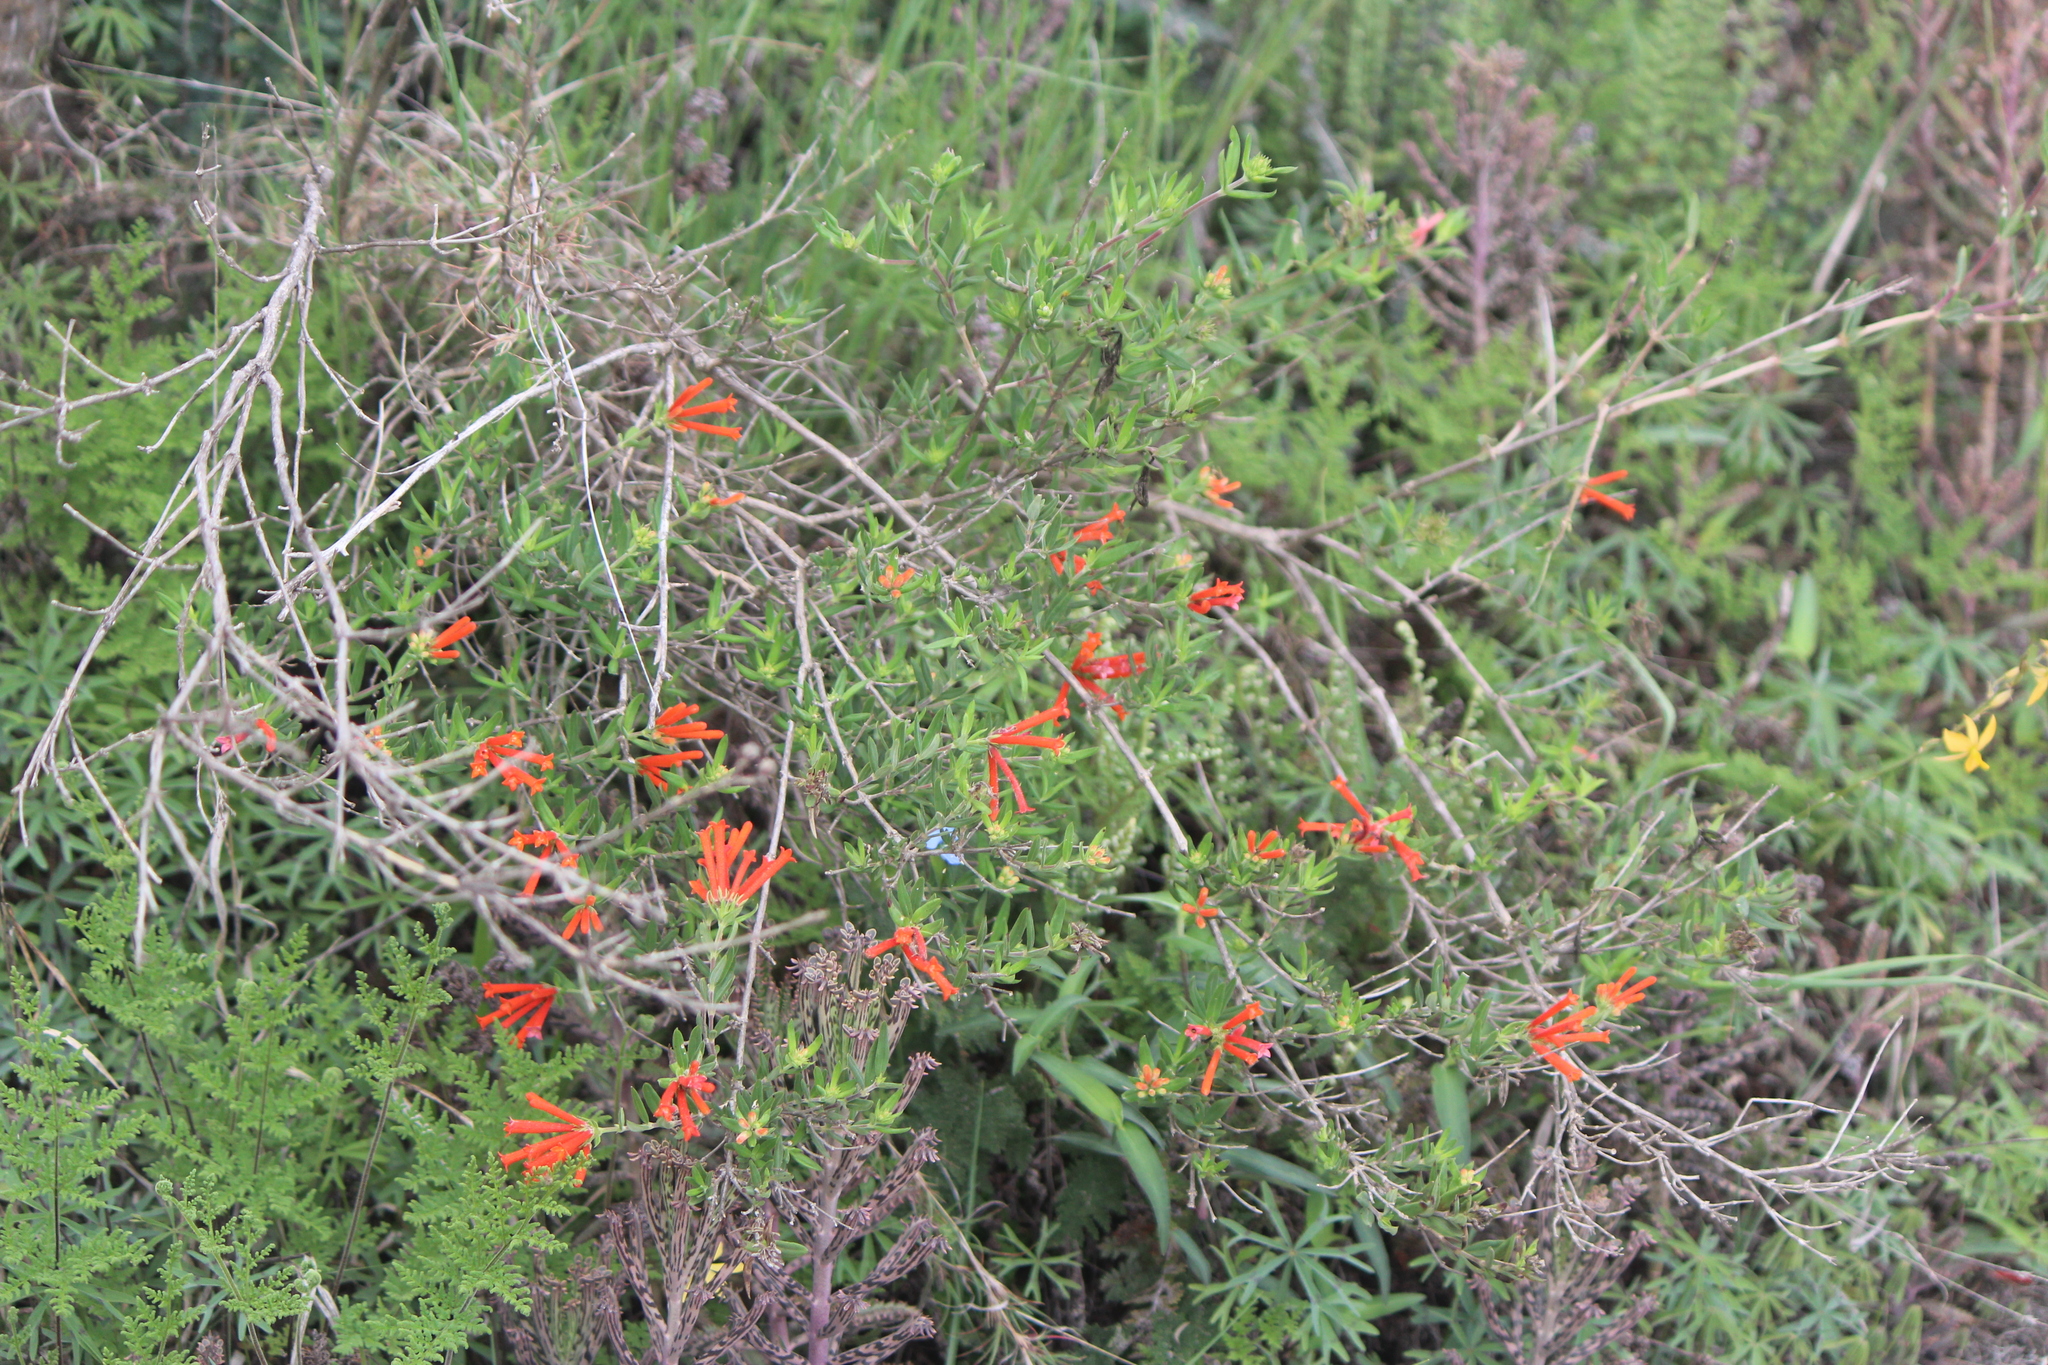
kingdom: Plantae
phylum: Tracheophyta
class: Magnoliopsida
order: Gentianales
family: Rubiaceae
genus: Bouvardia
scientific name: Bouvardia ternifolia
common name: Scarlet bouvardia
